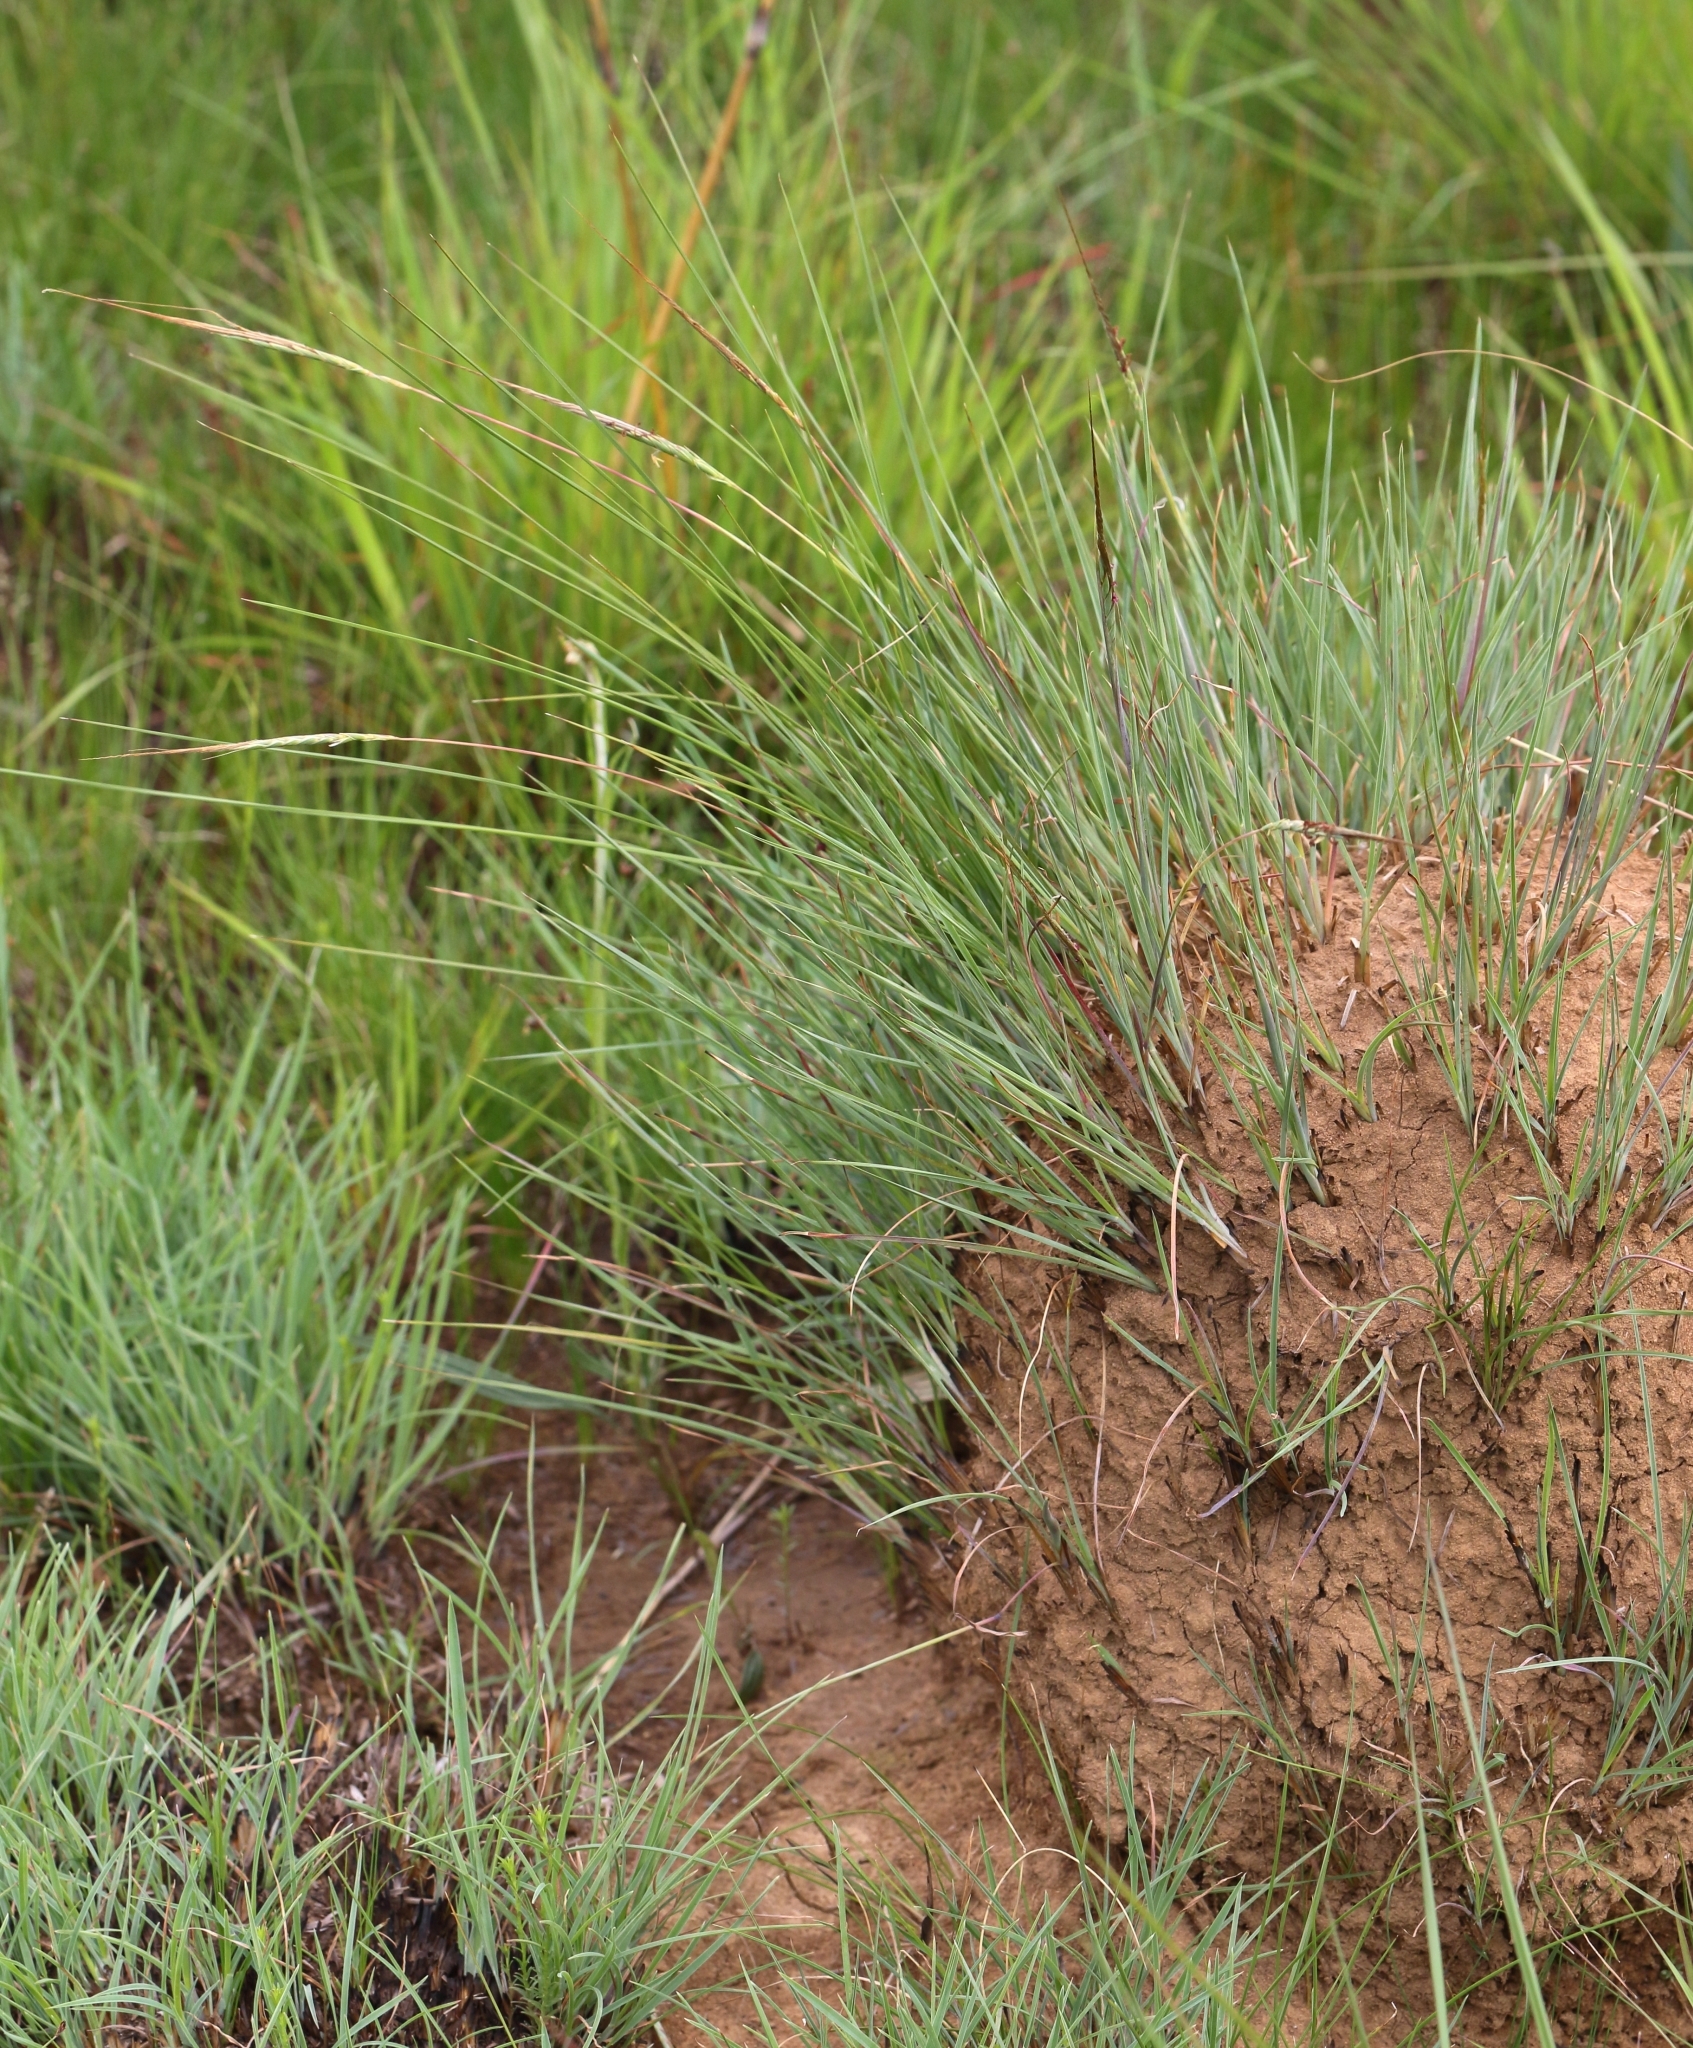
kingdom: Plantae
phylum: Tracheophyta
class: Liliopsida
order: Poales
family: Poaceae
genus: Heteropogon
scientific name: Heteropogon contortus
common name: Tanglehead
